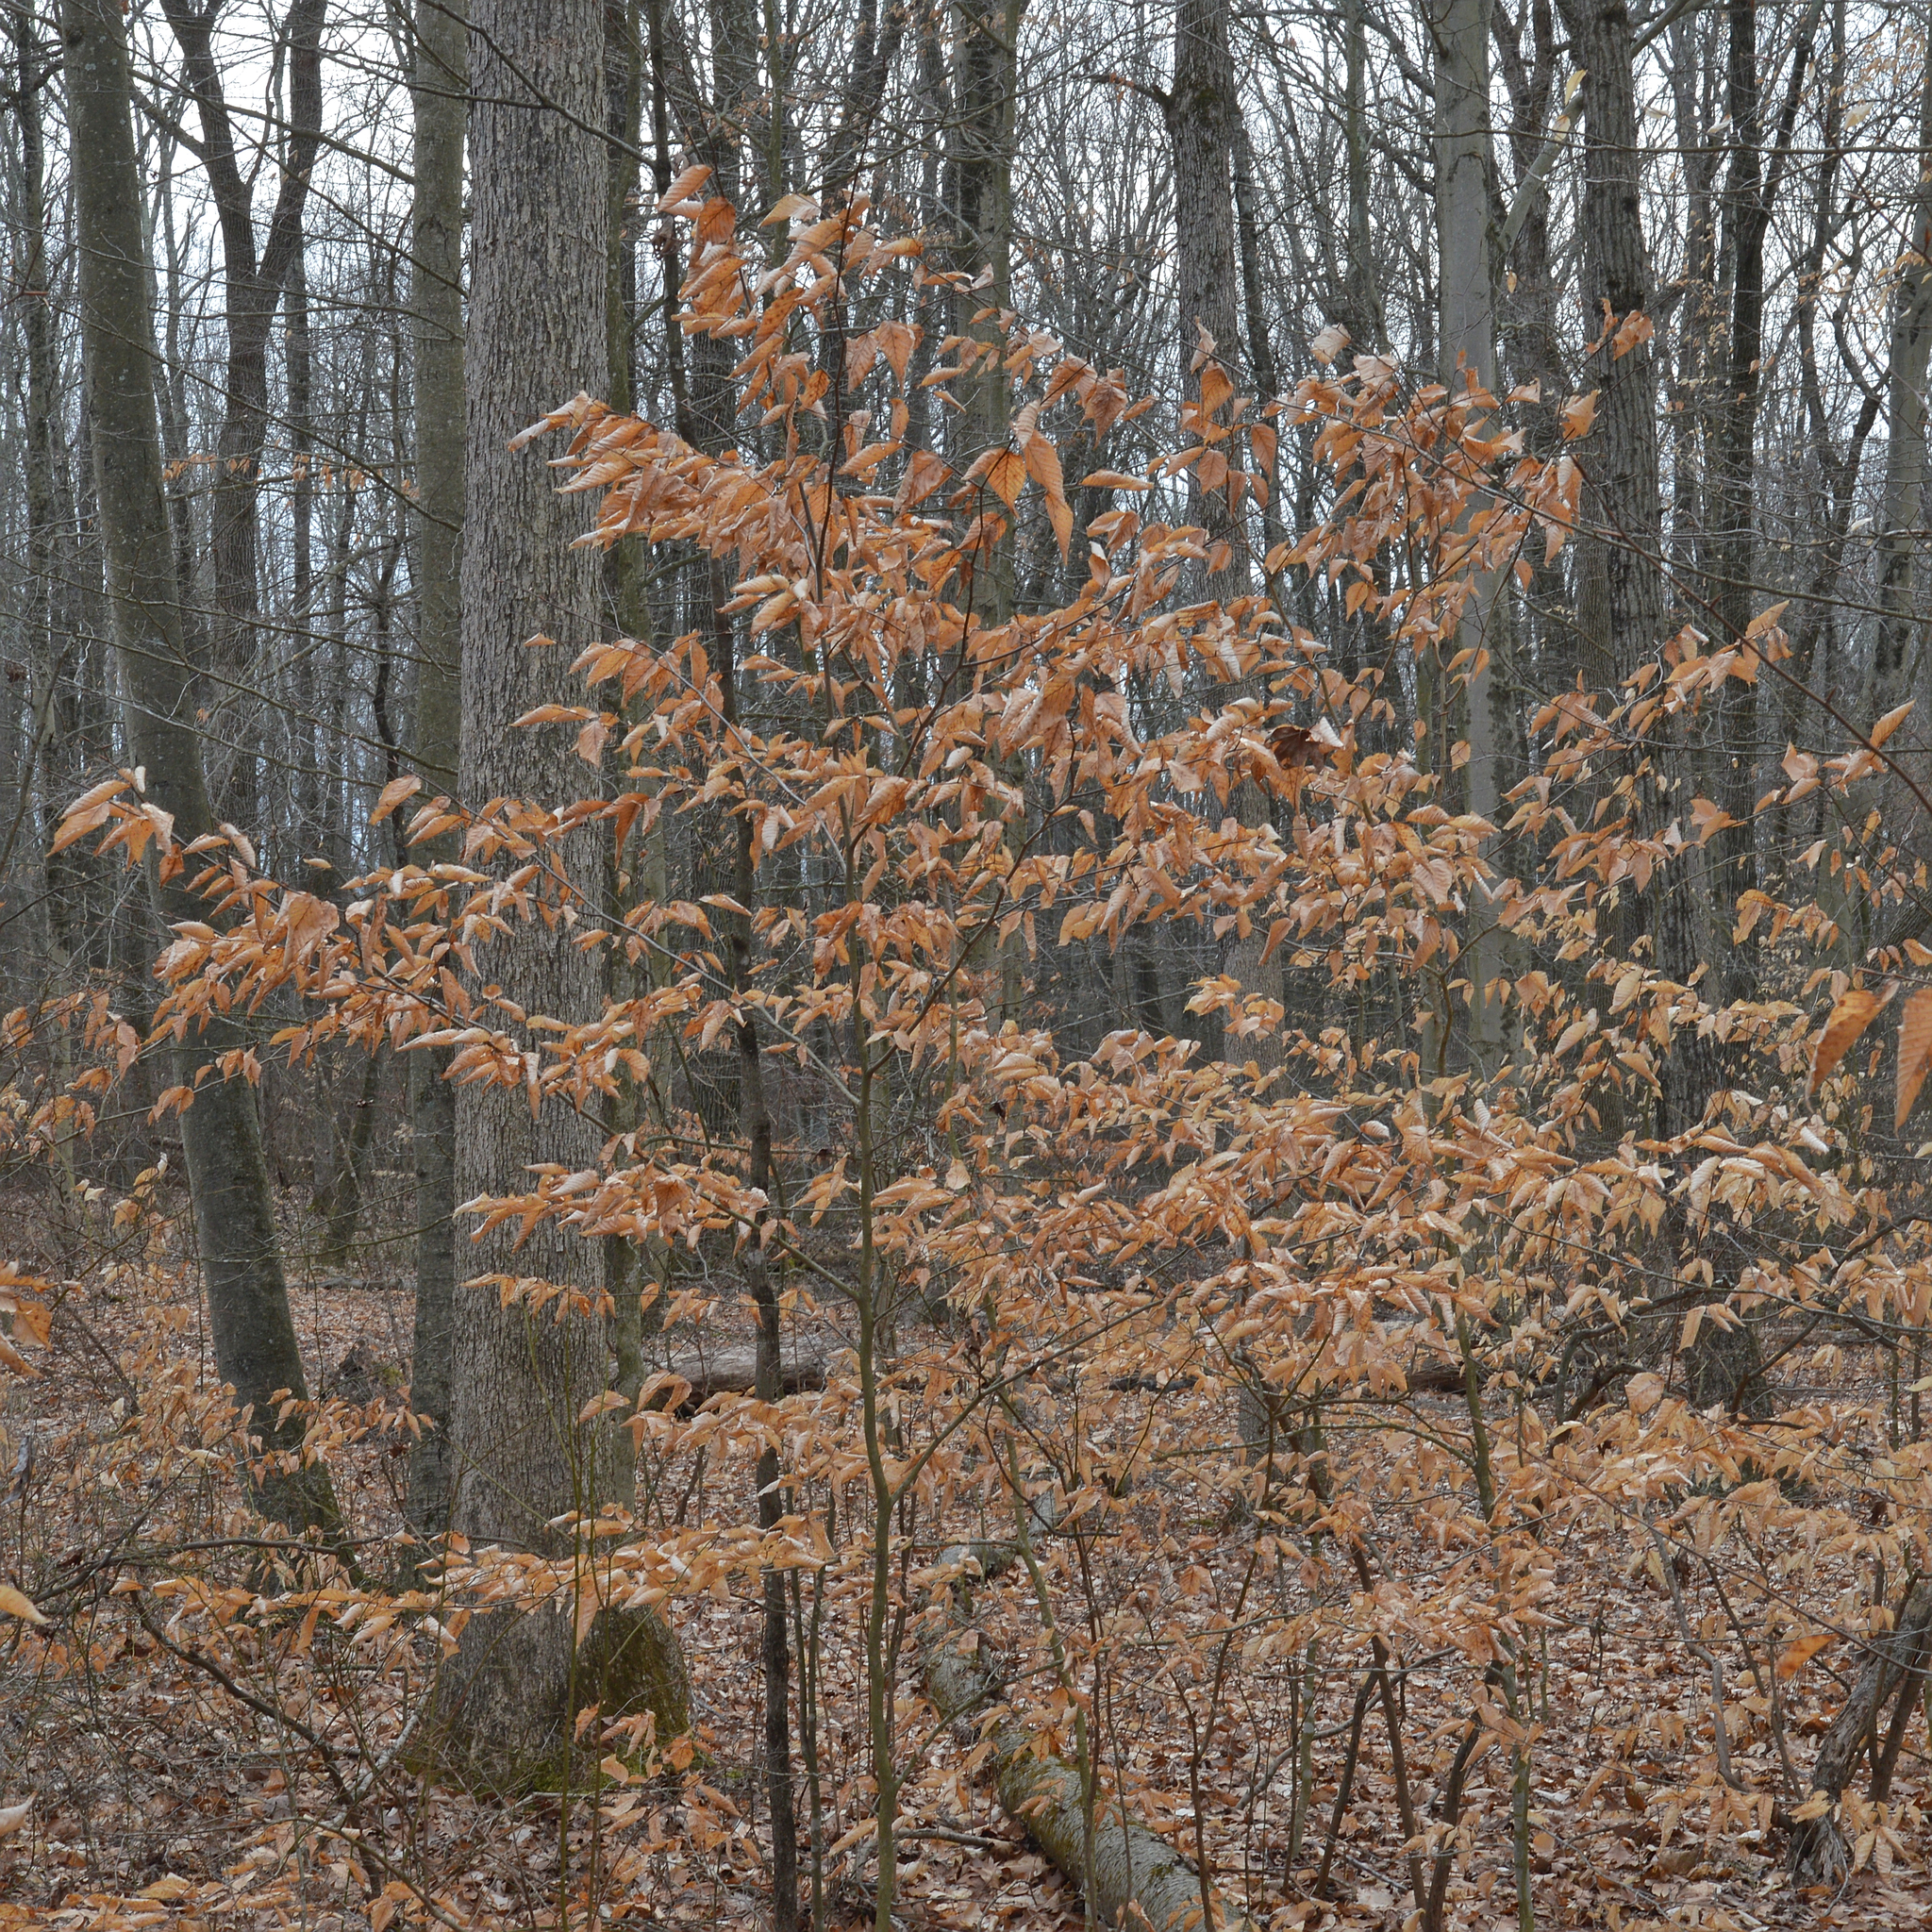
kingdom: Plantae
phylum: Tracheophyta
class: Magnoliopsida
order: Fagales
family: Fagaceae
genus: Fagus
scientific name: Fagus grandifolia
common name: American beech
